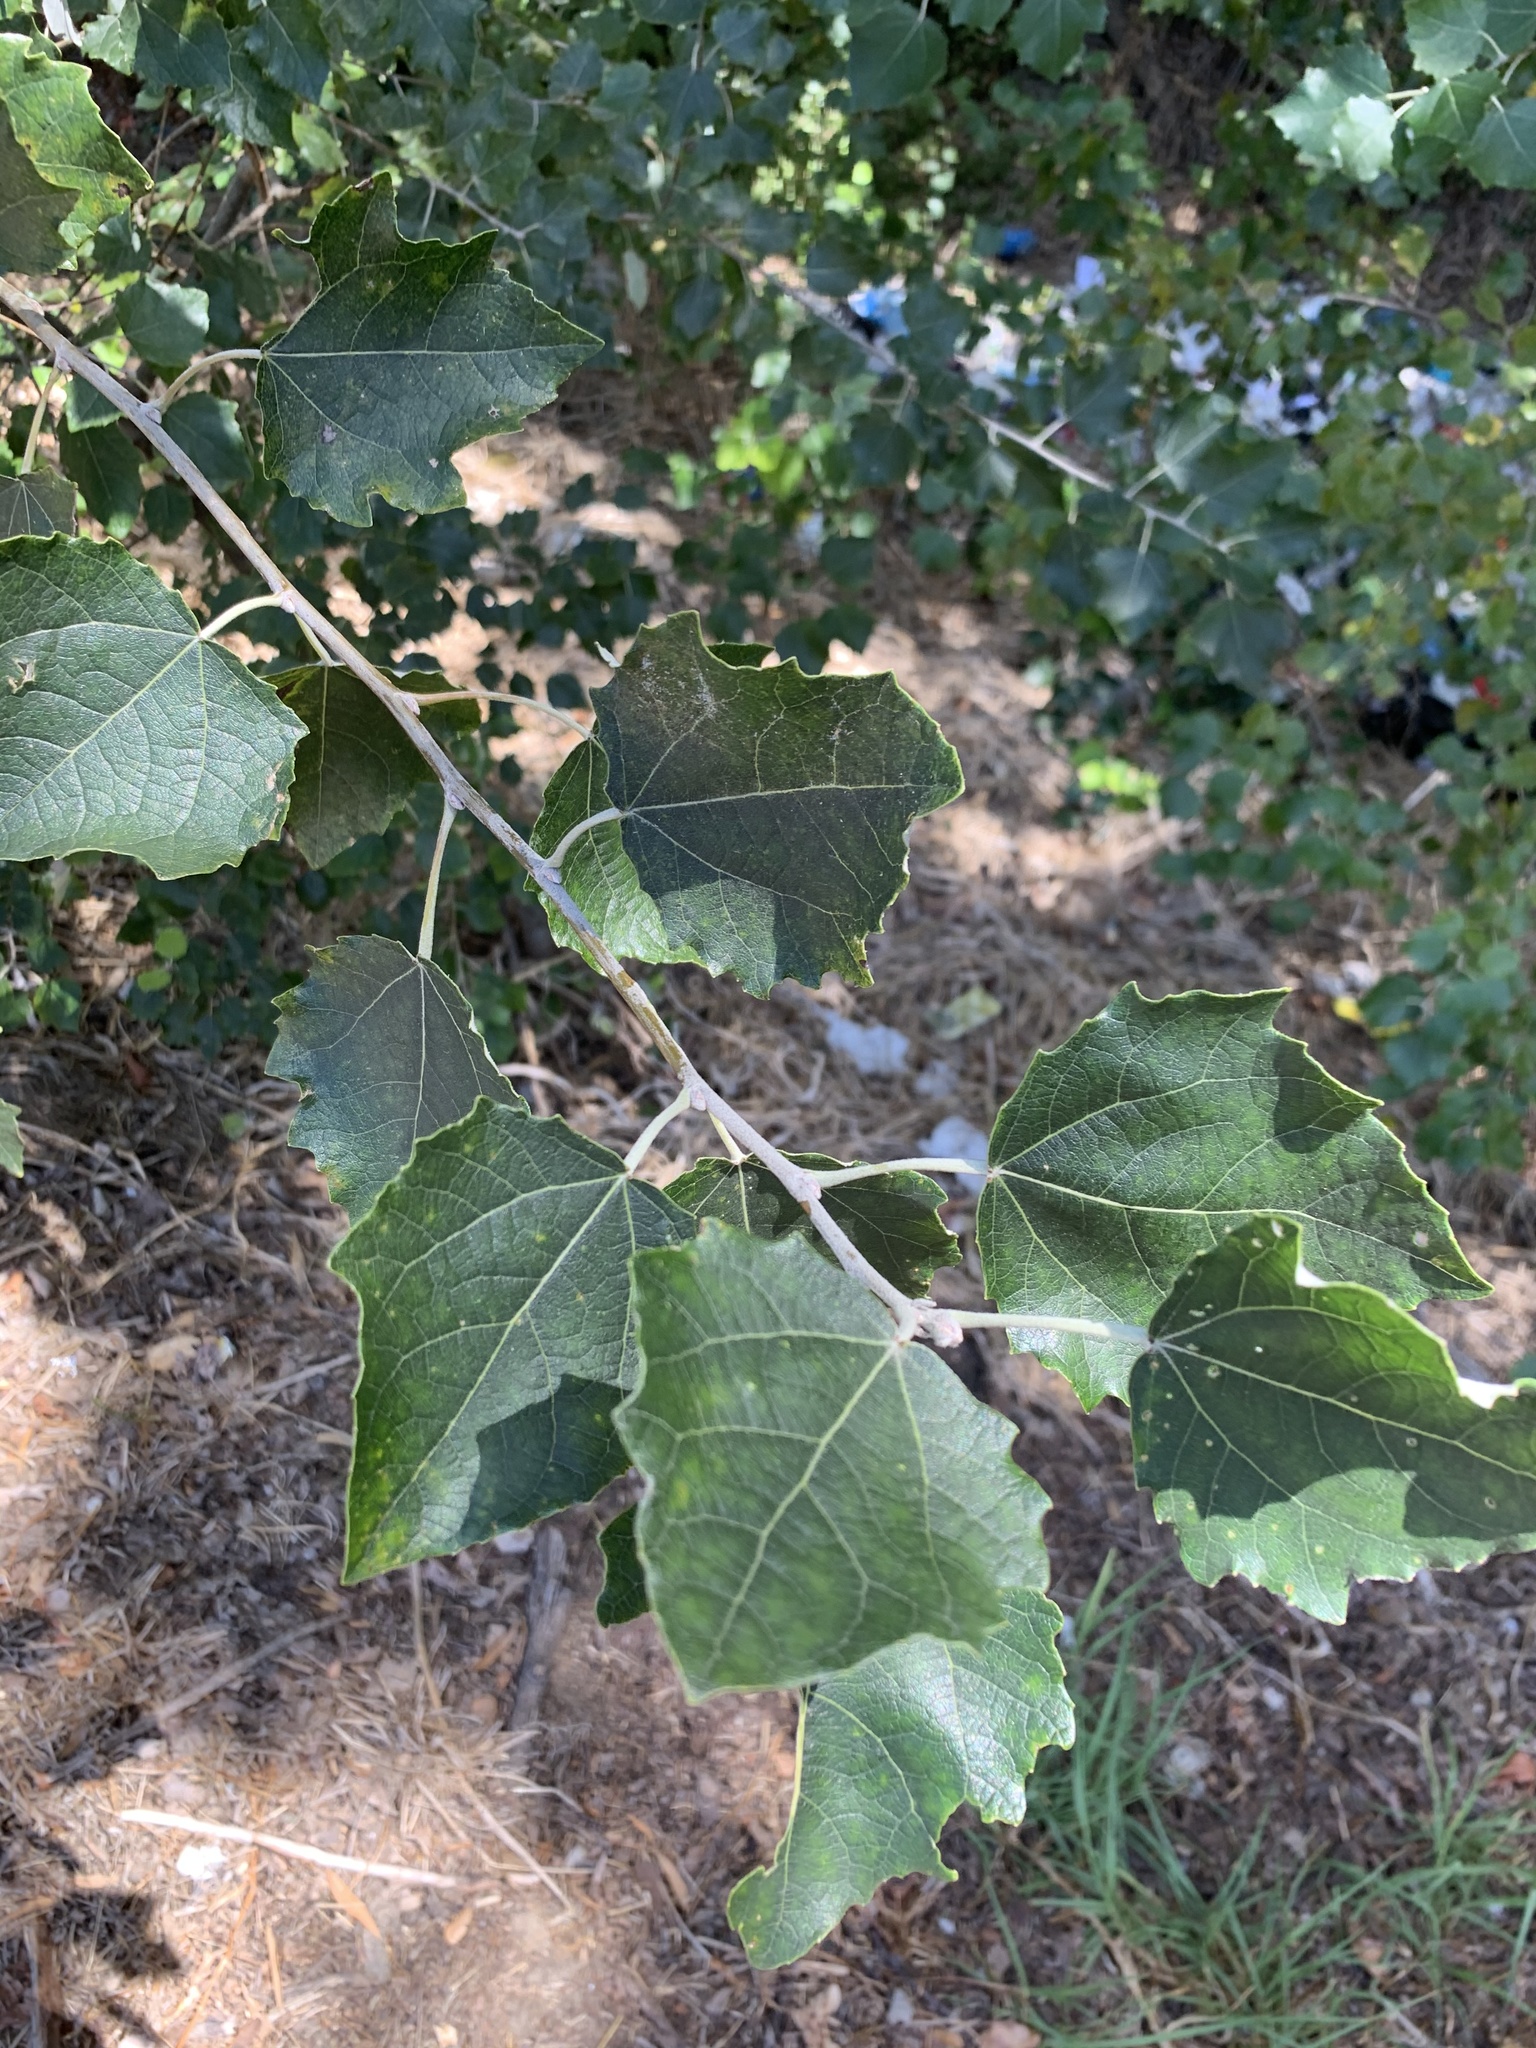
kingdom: Plantae
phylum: Tracheophyta
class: Magnoliopsida
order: Malpighiales
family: Salicaceae
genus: Populus
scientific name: Populus canescens
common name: Gray poplar
